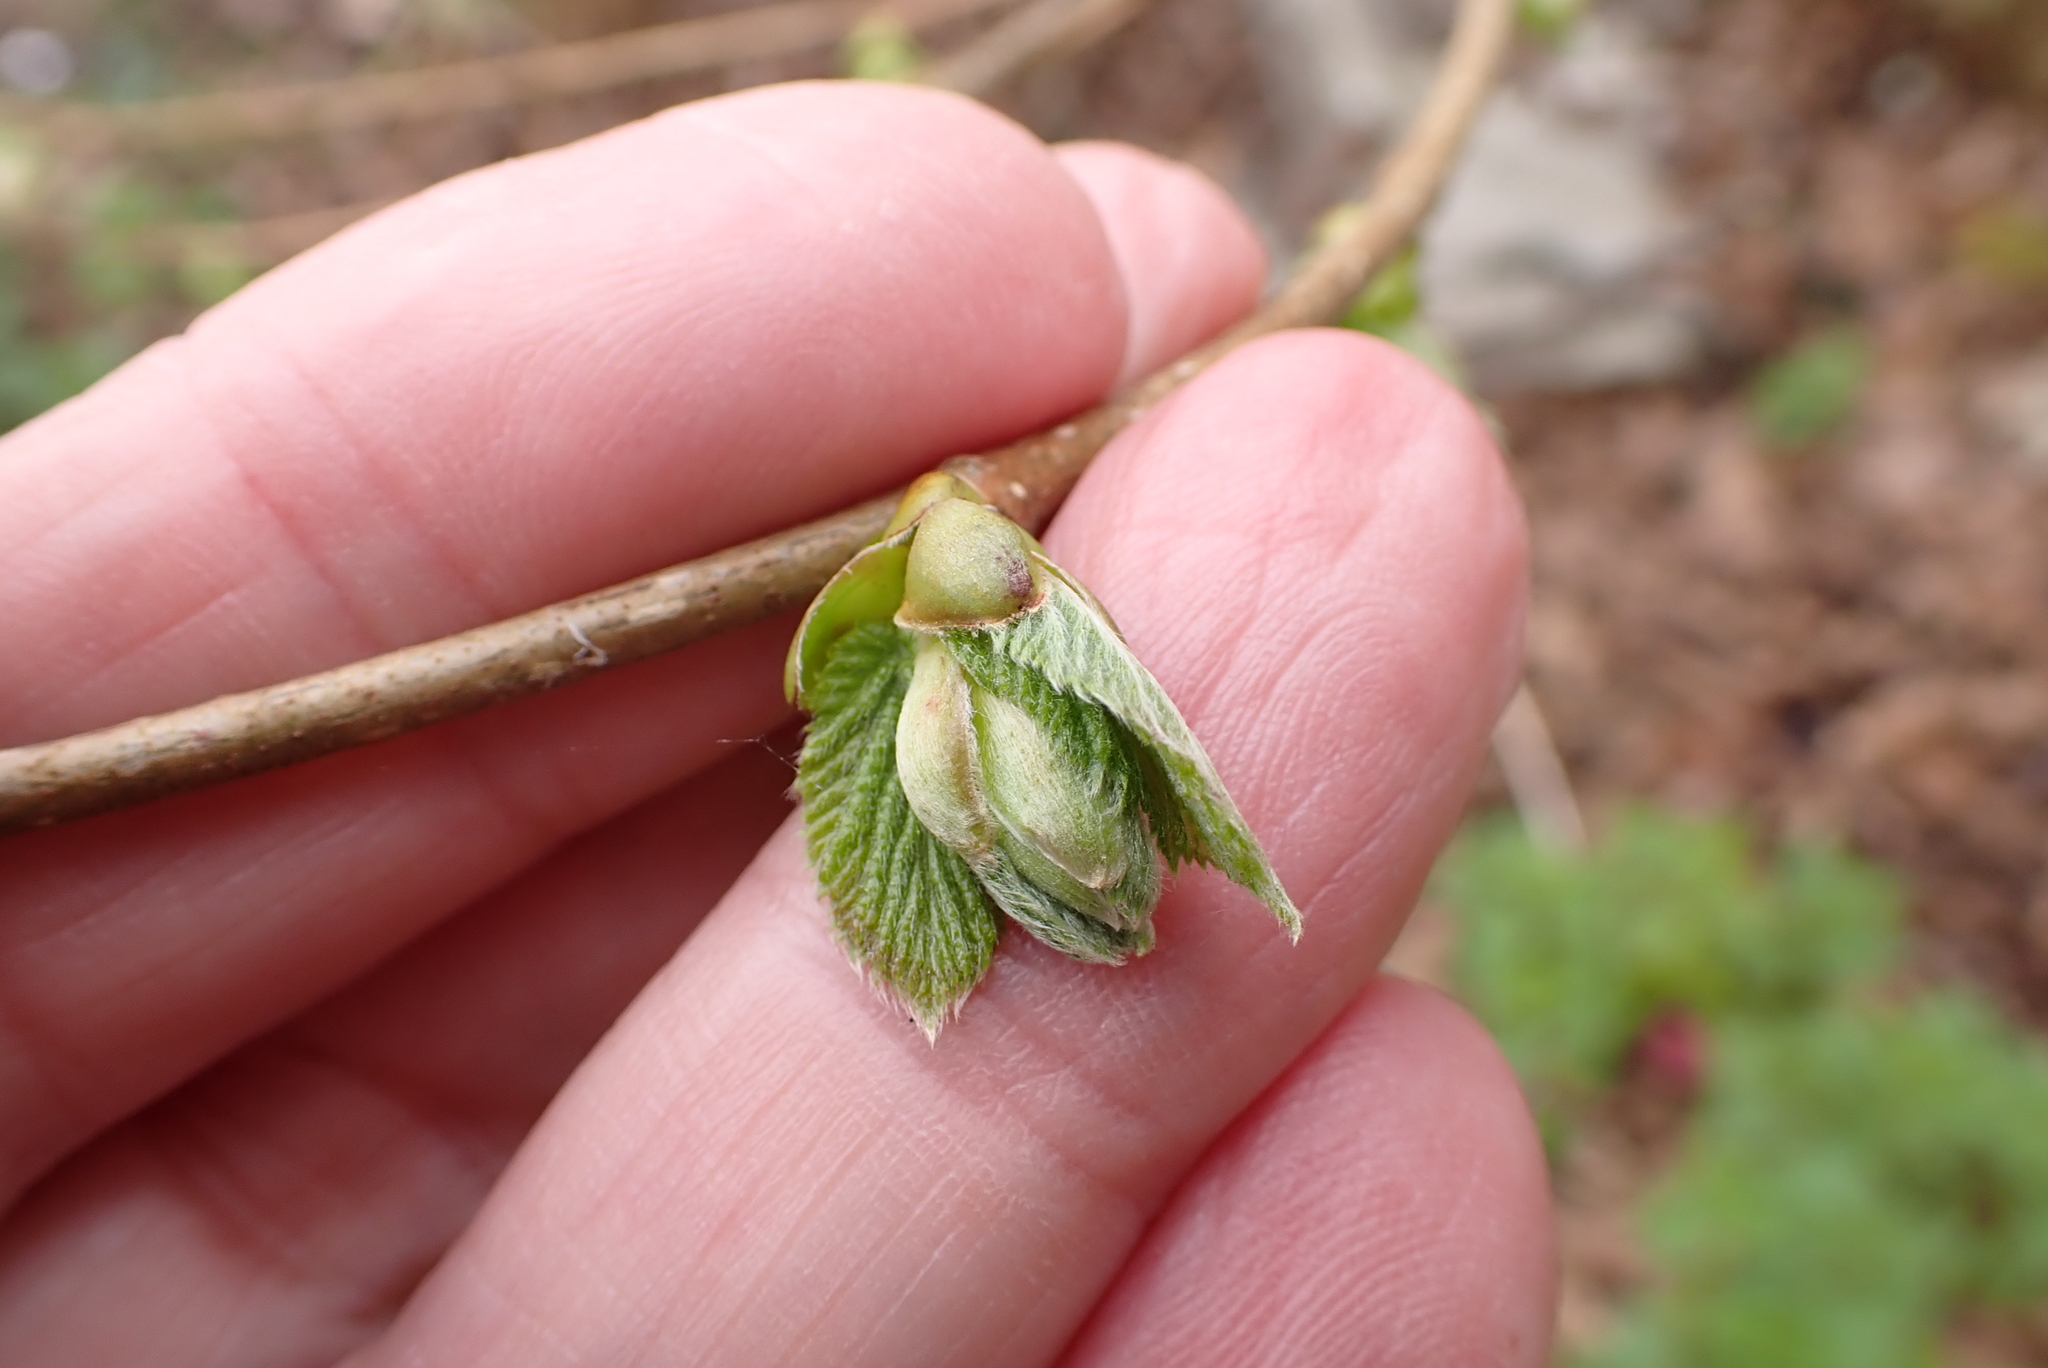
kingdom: Plantae
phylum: Tracheophyta
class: Magnoliopsida
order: Fagales
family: Betulaceae
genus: Corylus
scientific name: Corylus avellana
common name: European hazel
